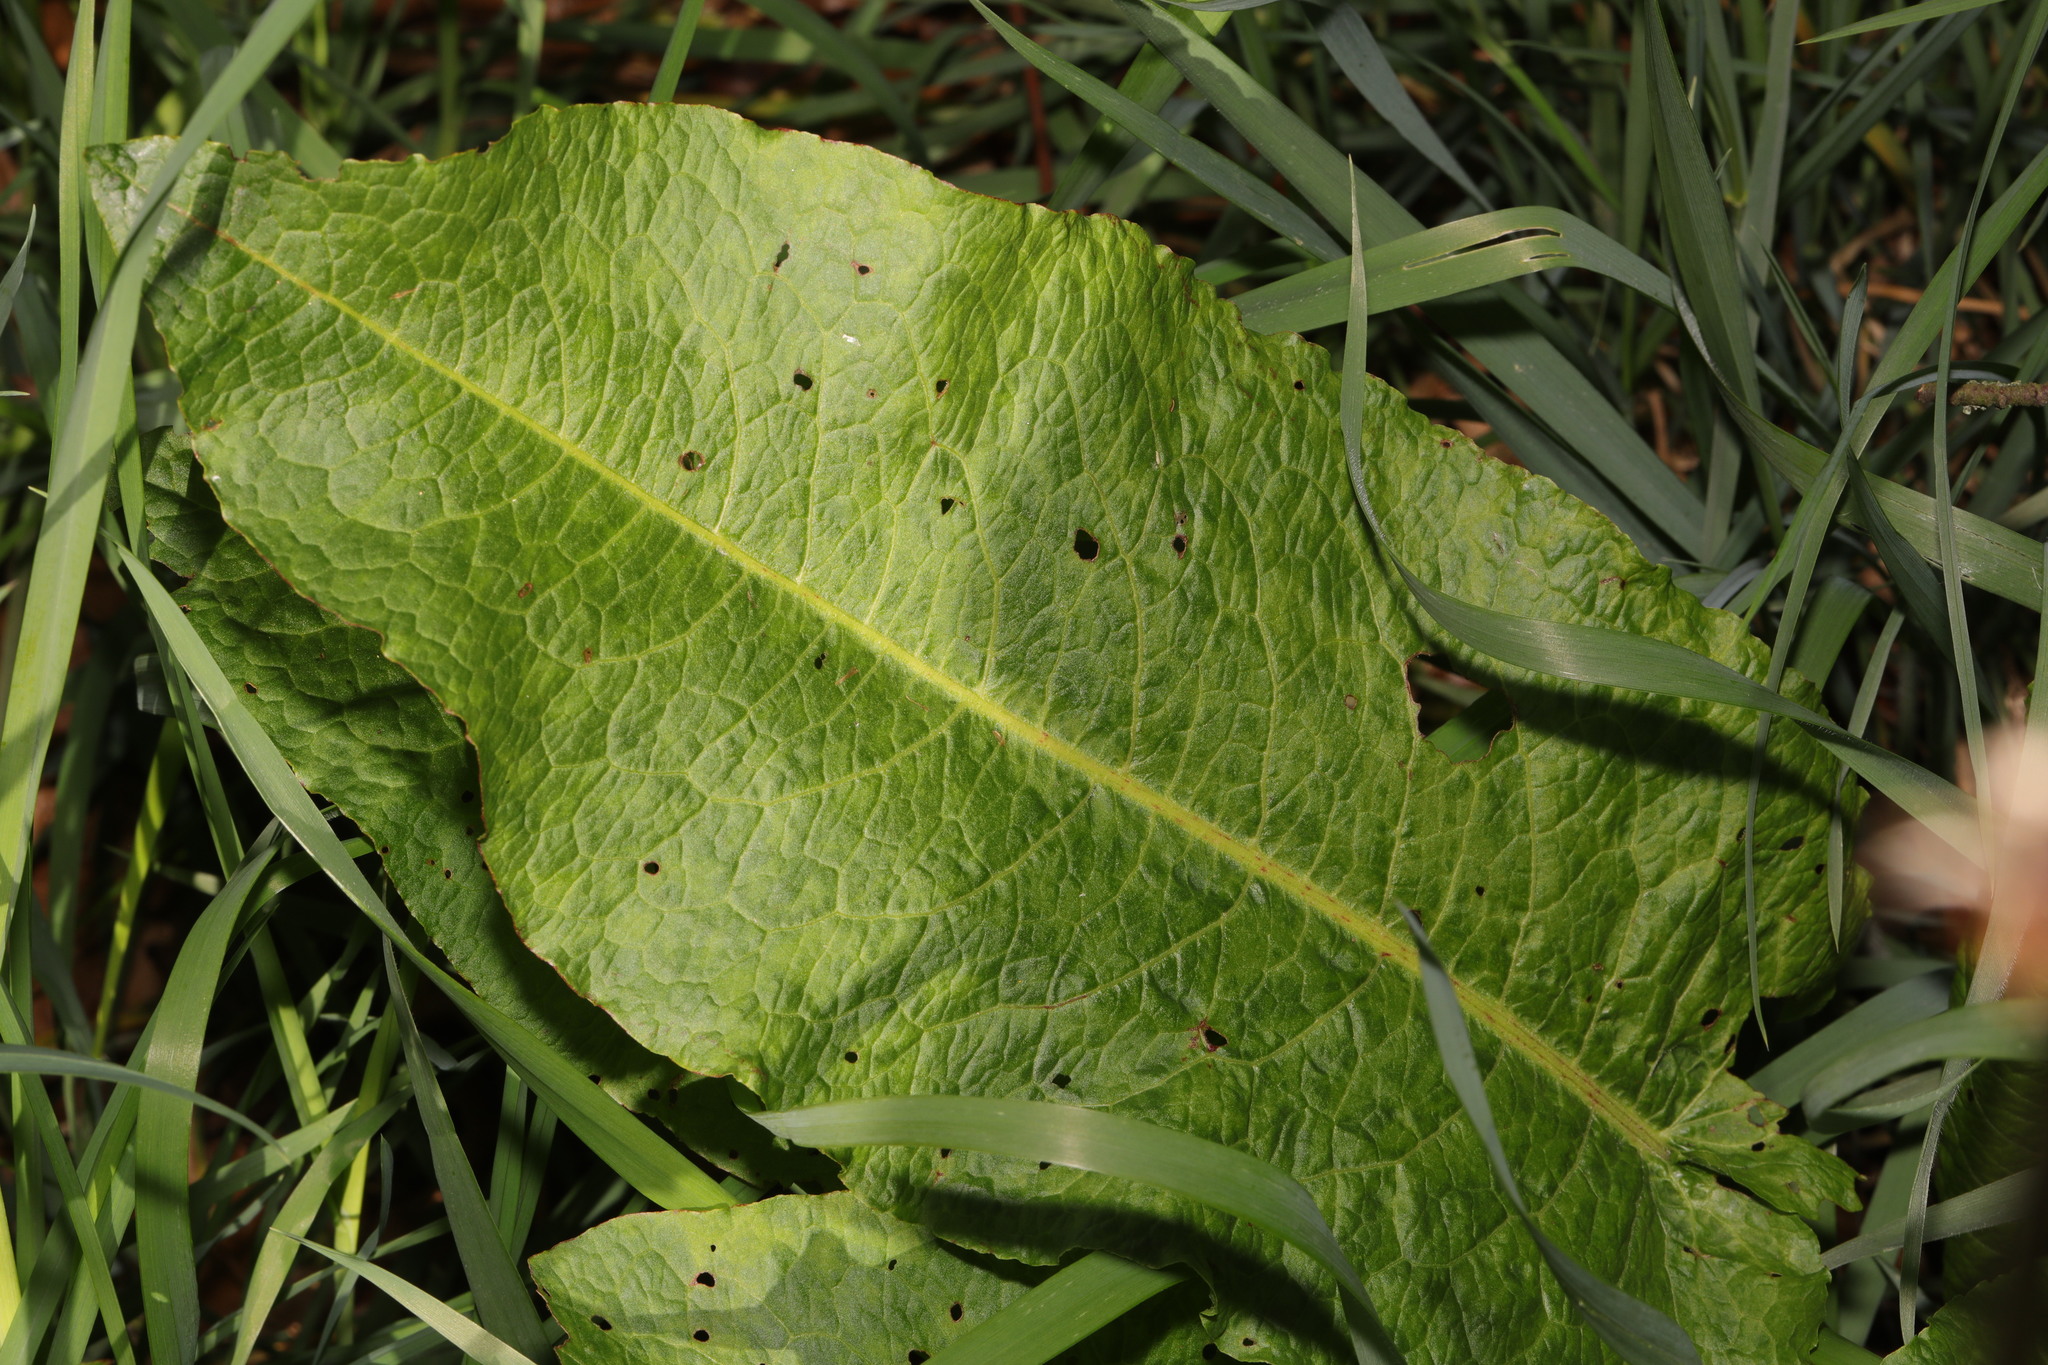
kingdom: Plantae
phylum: Tracheophyta
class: Magnoliopsida
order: Caryophyllales
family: Polygonaceae
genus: Rumex
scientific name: Rumex obtusifolius
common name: Bitter dock
